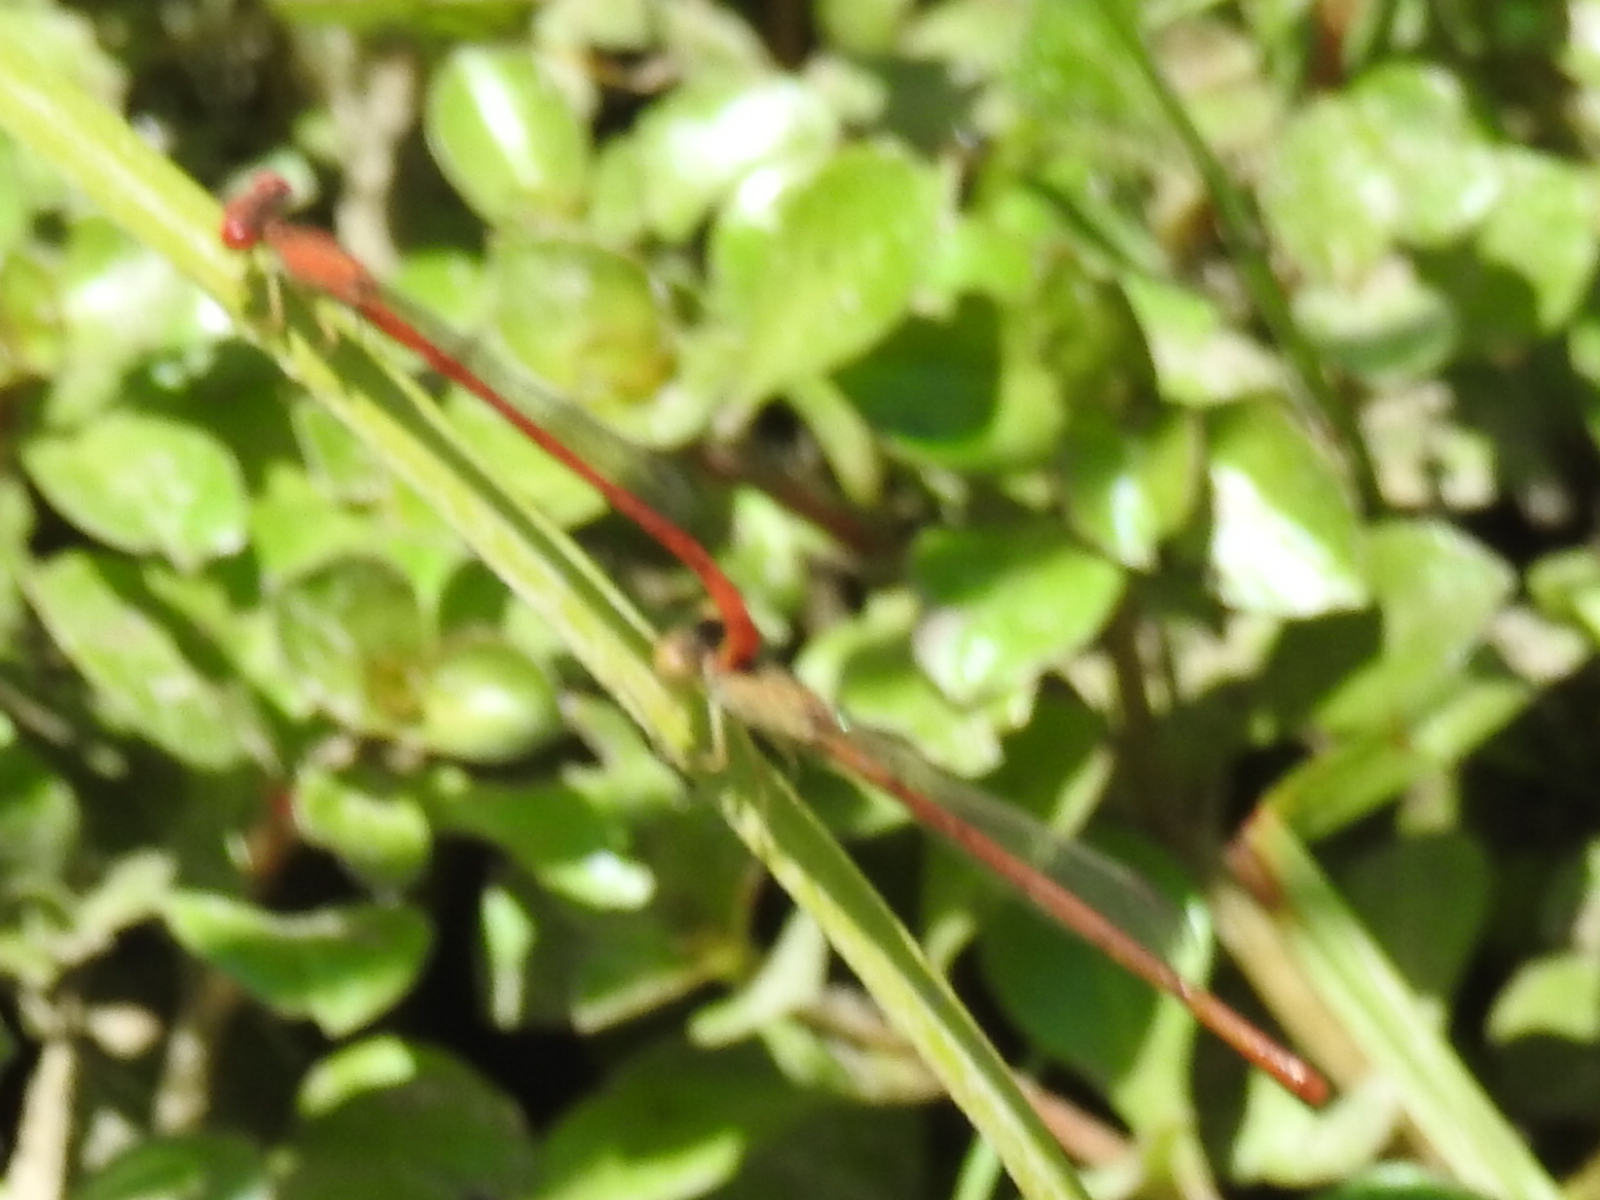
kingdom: Animalia
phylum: Arthropoda
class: Insecta
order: Odonata
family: Coenagrionidae
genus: Telebasis
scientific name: Telebasis salva
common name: Desert firetail
